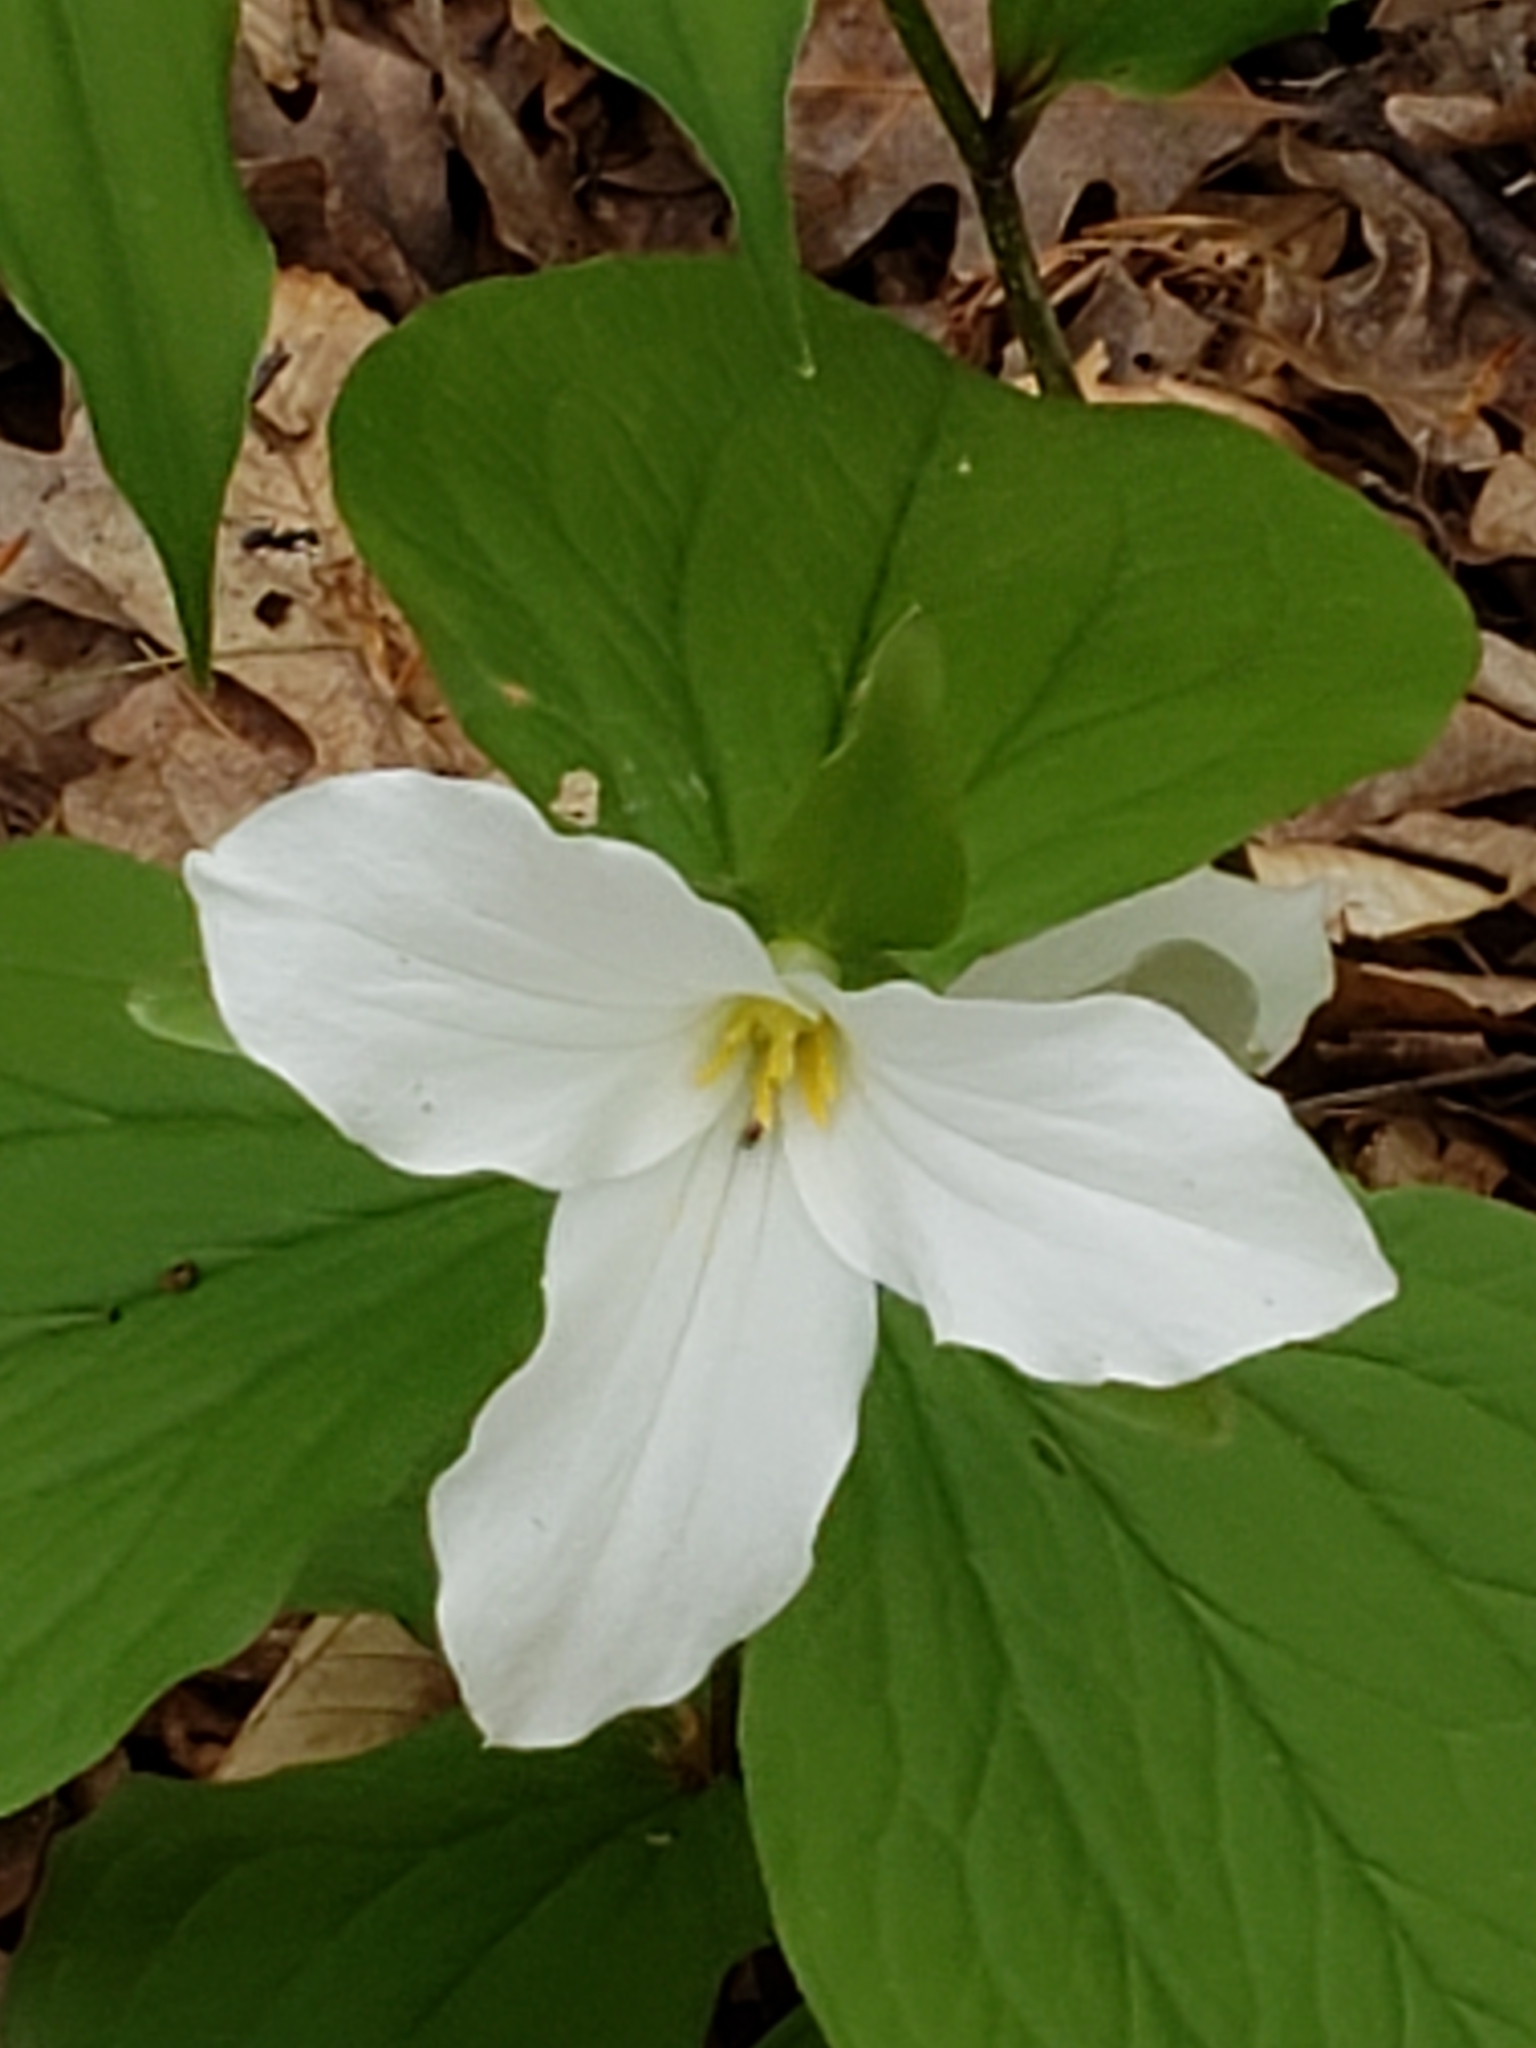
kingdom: Plantae
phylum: Tracheophyta
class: Liliopsida
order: Liliales
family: Melanthiaceae
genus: Trillium
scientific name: Trillium grandiflorum
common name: Great white trillium
